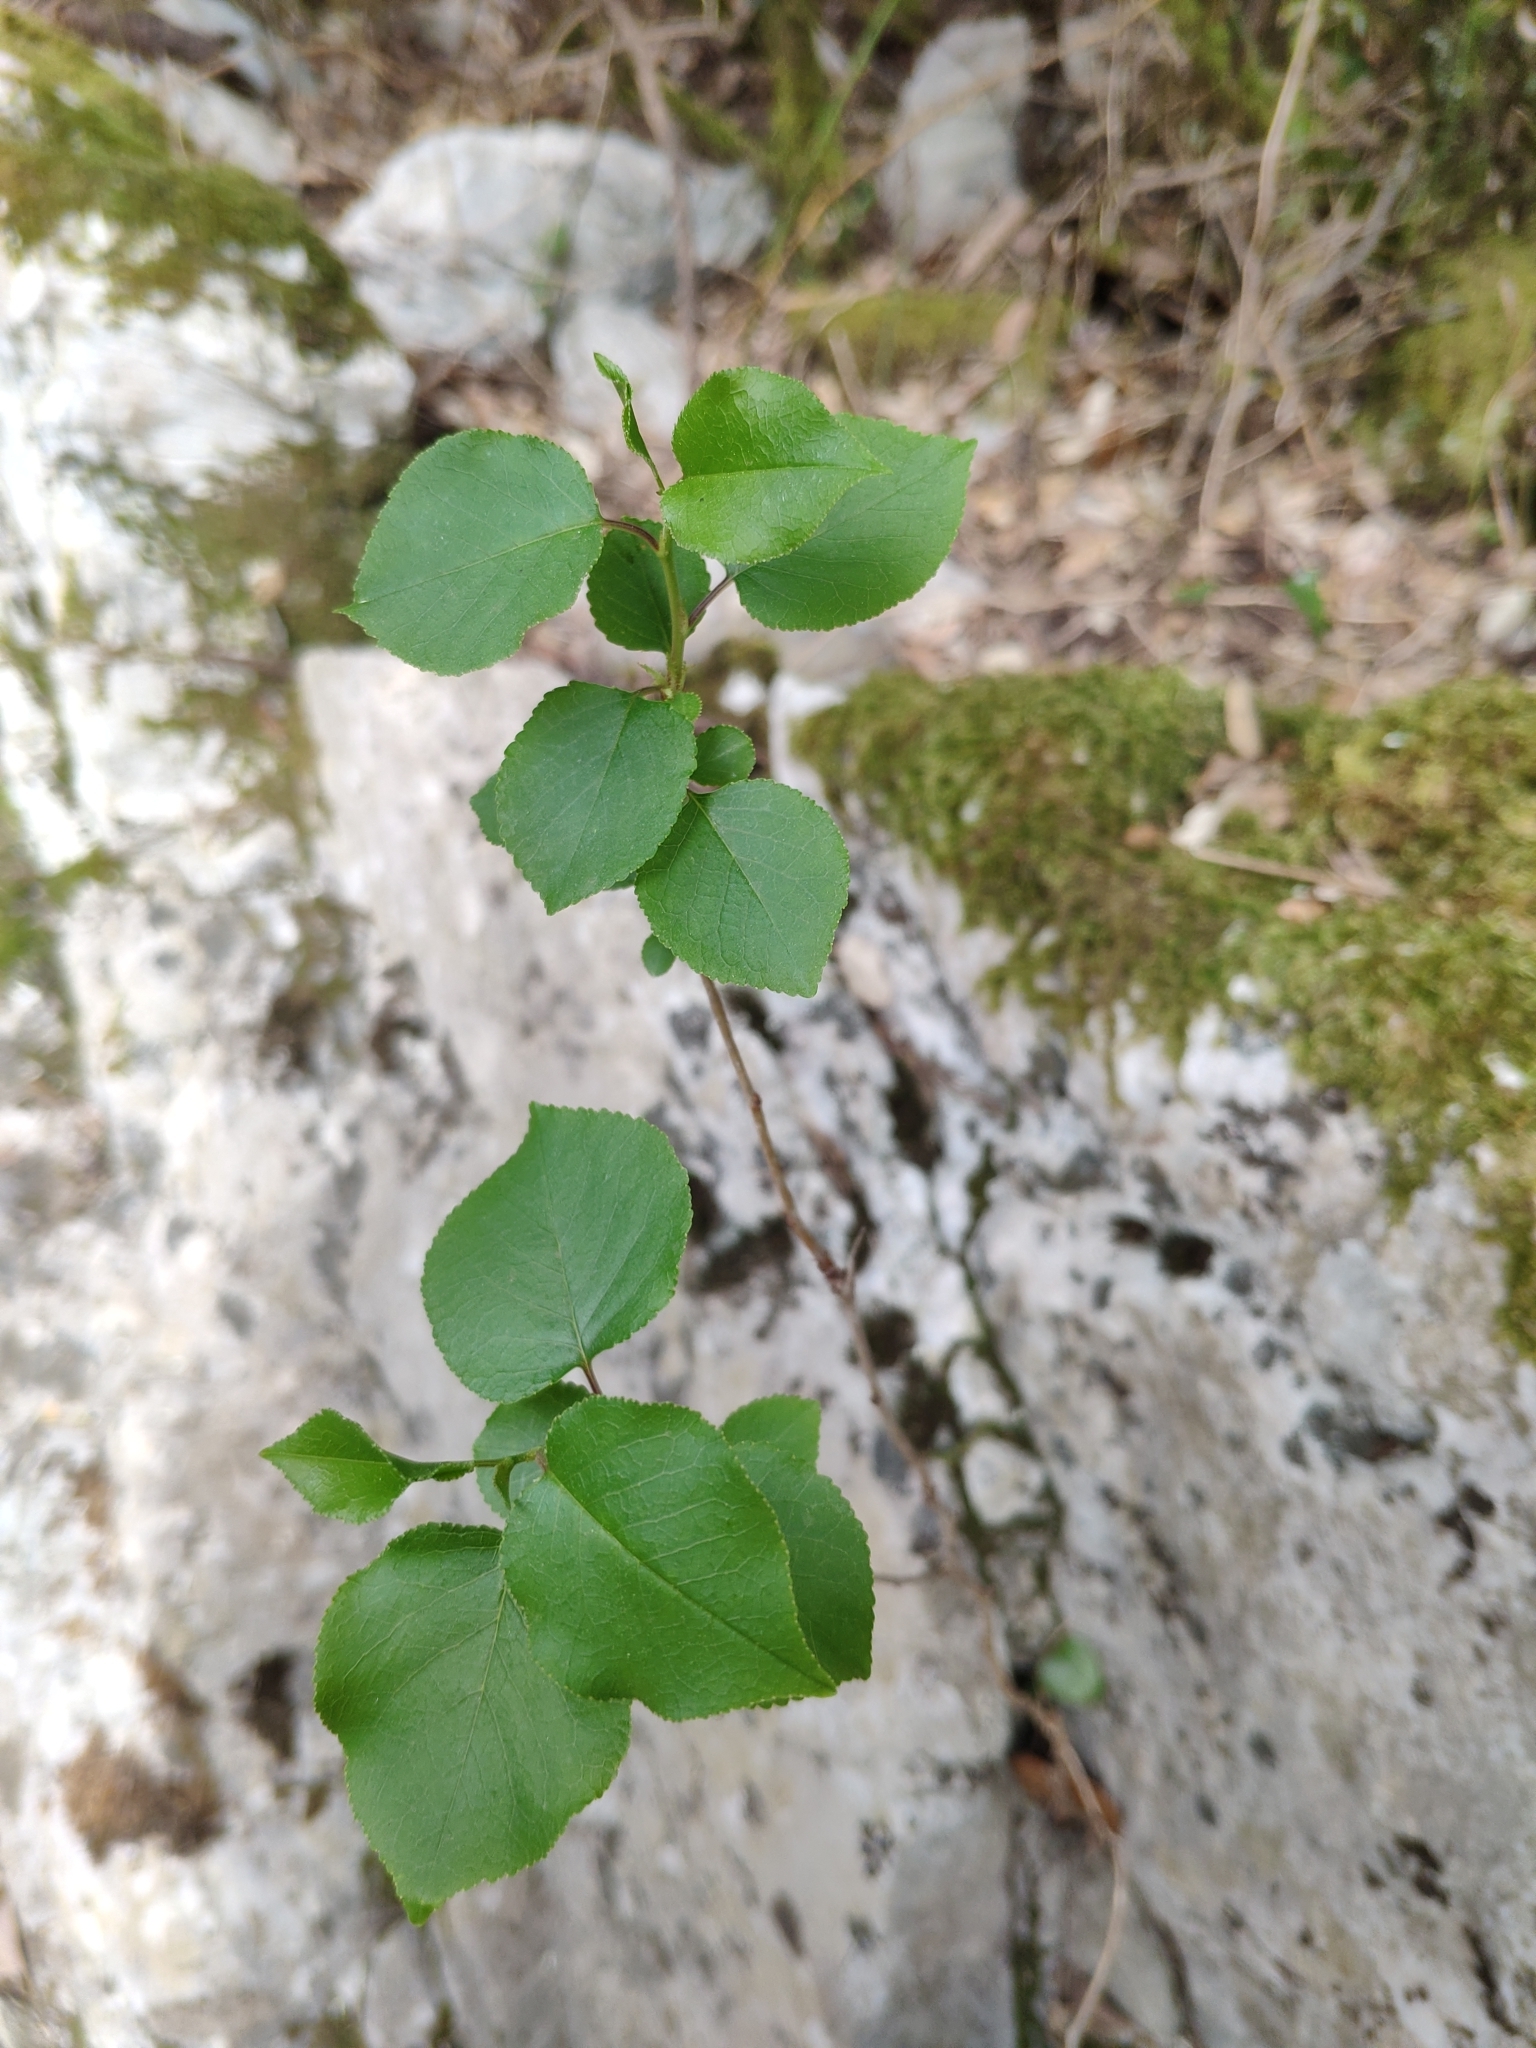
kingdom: Plantae
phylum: Tracheophyta
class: Magnoliopsida
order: Rosales
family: Rosaceae
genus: Prunus
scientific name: Prunus mahaleb
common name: Mahaleb cherry
